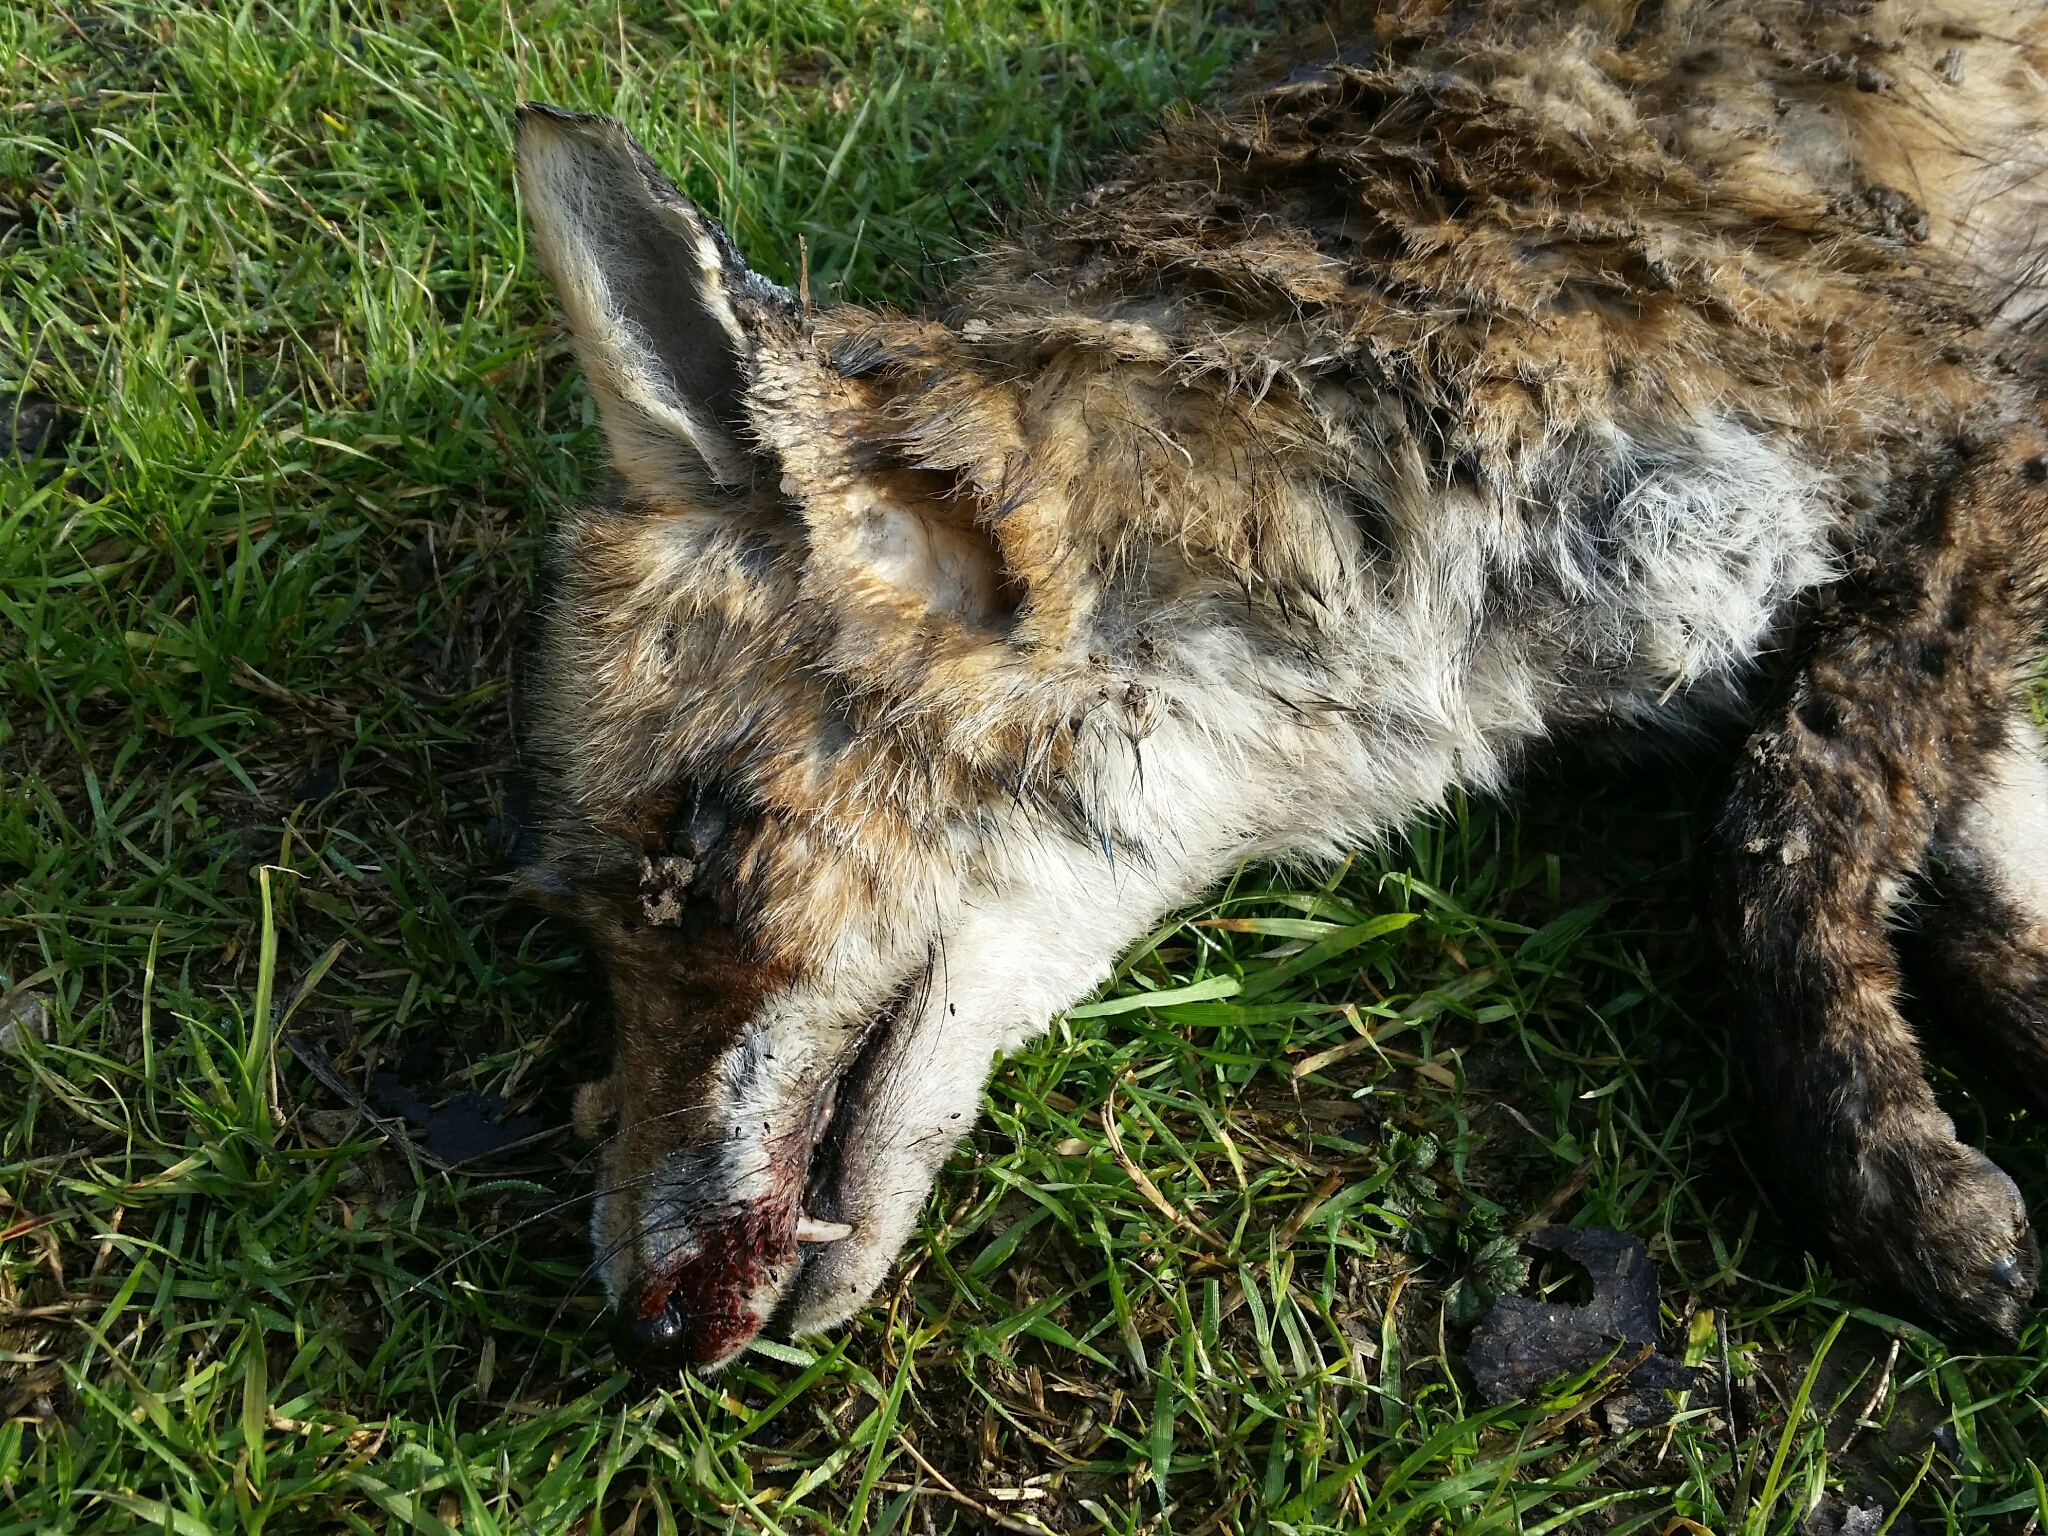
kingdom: Animalia
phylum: Chordata
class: Mammalia
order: Carnivora
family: Canidae
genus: Vulpes
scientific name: Vulpes vulpes
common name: Red fox
